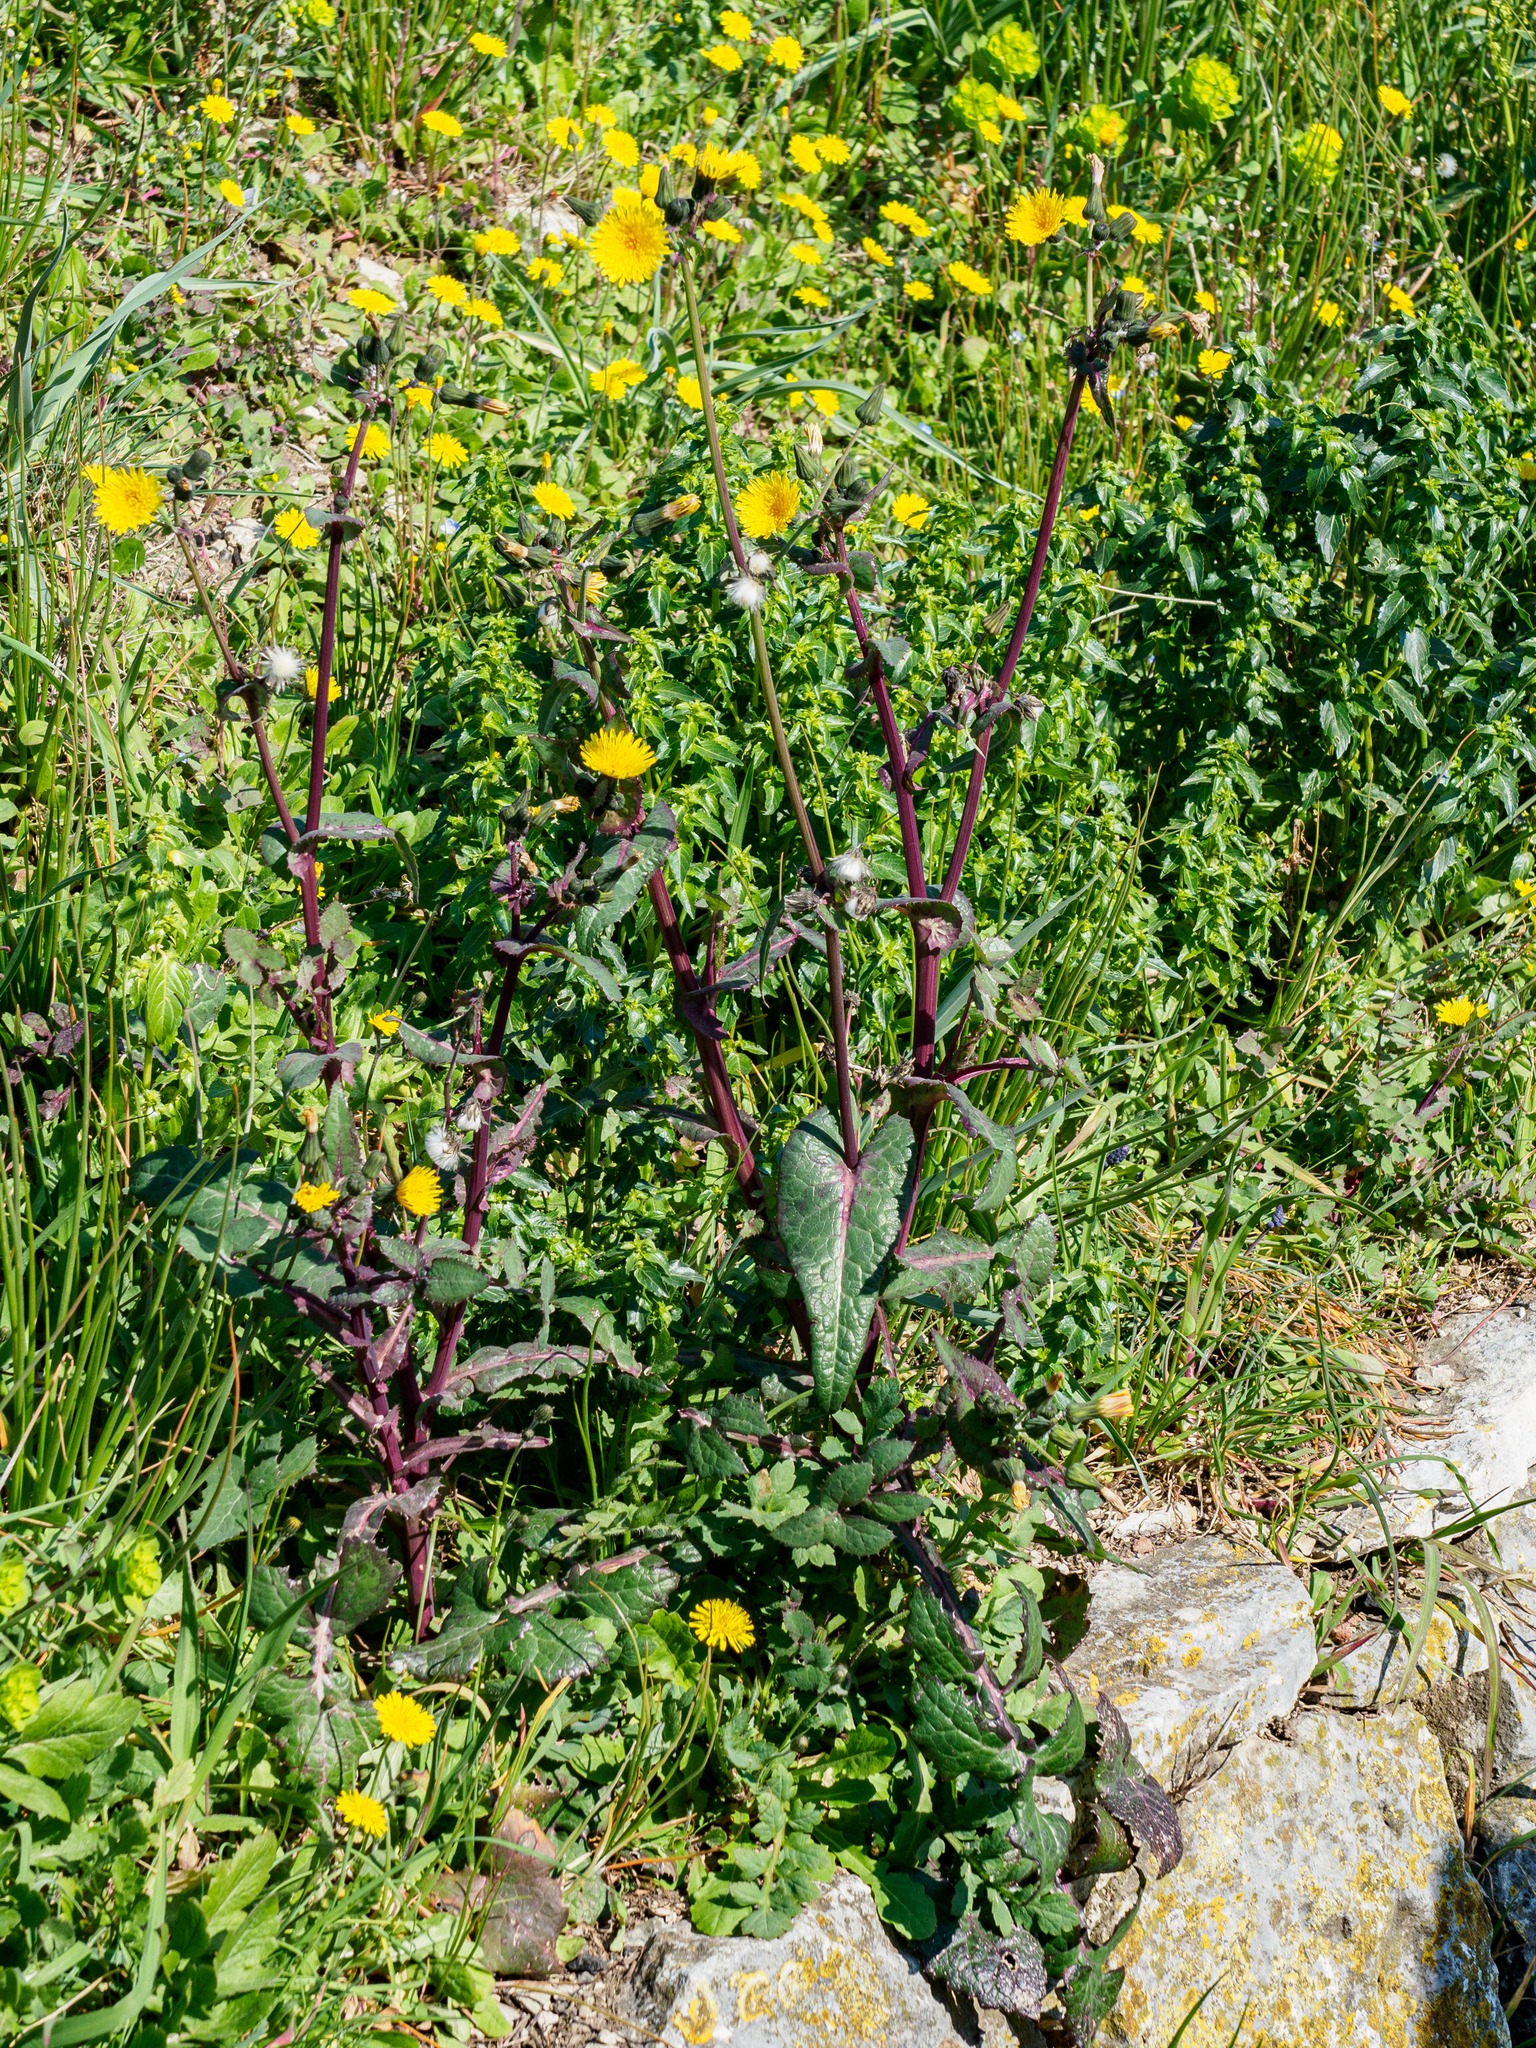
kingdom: Plantae
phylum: Tracheophyta
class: Magnoliopsida
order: Asterales
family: Asteraceae
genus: Sonchus
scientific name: Sonchus oleraceus
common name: Common sowthistle
